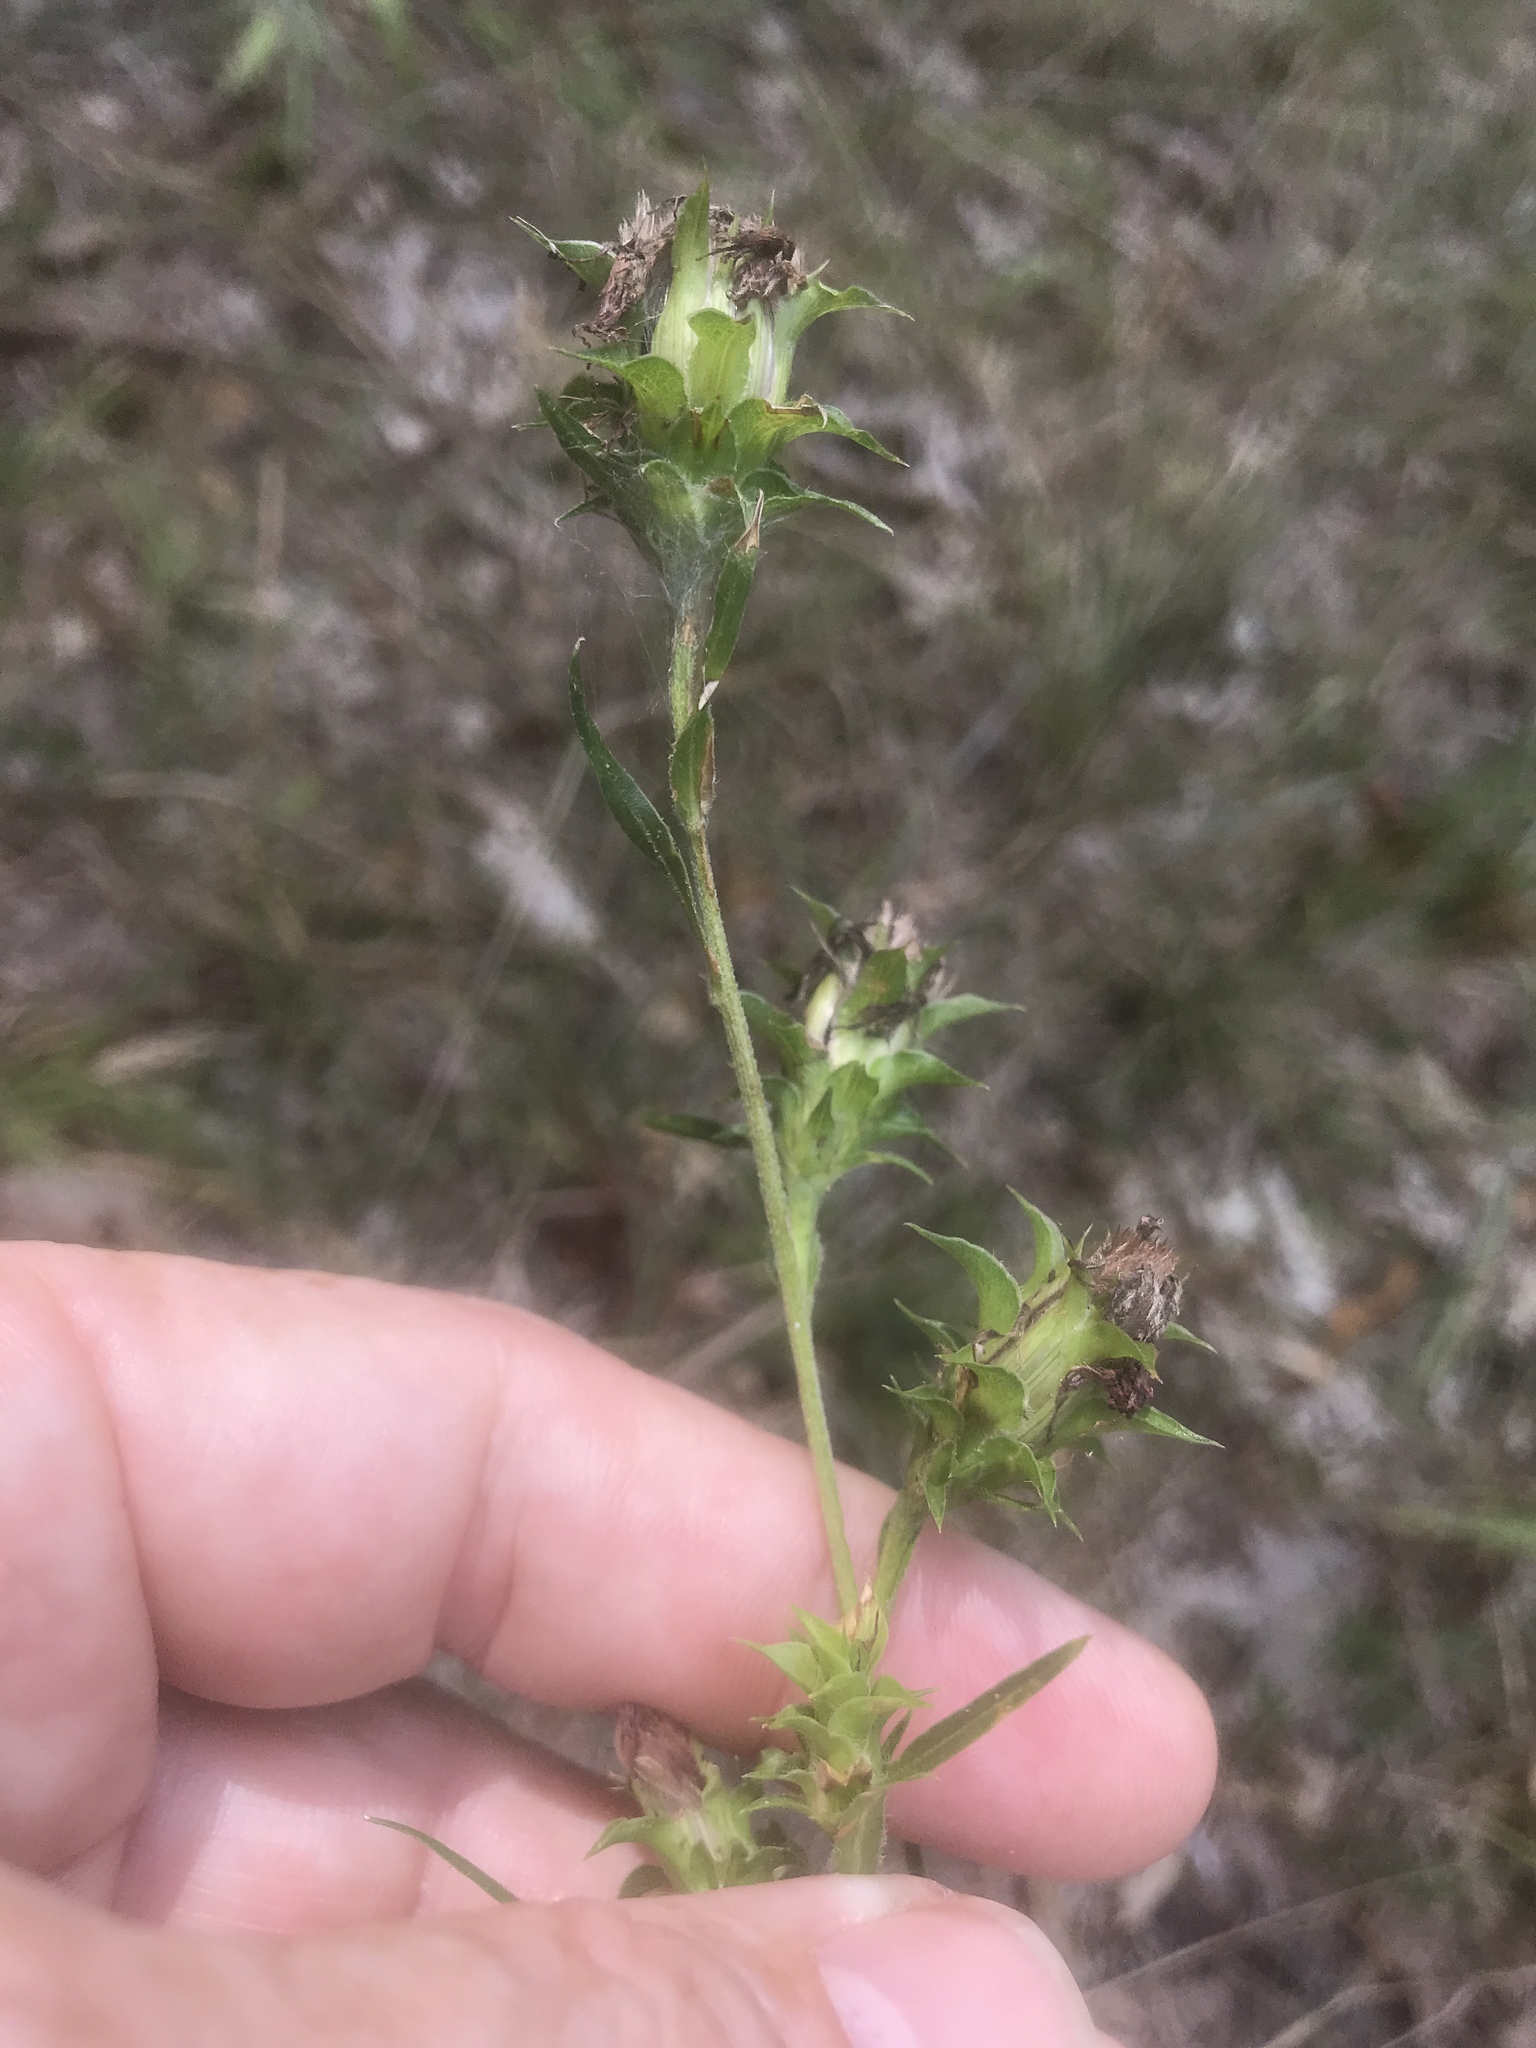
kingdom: Plantae
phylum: Tracheophyta
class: Magnoliopsida
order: Asterales
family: Asteraceae
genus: Liatris
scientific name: Liatris squarrosa
